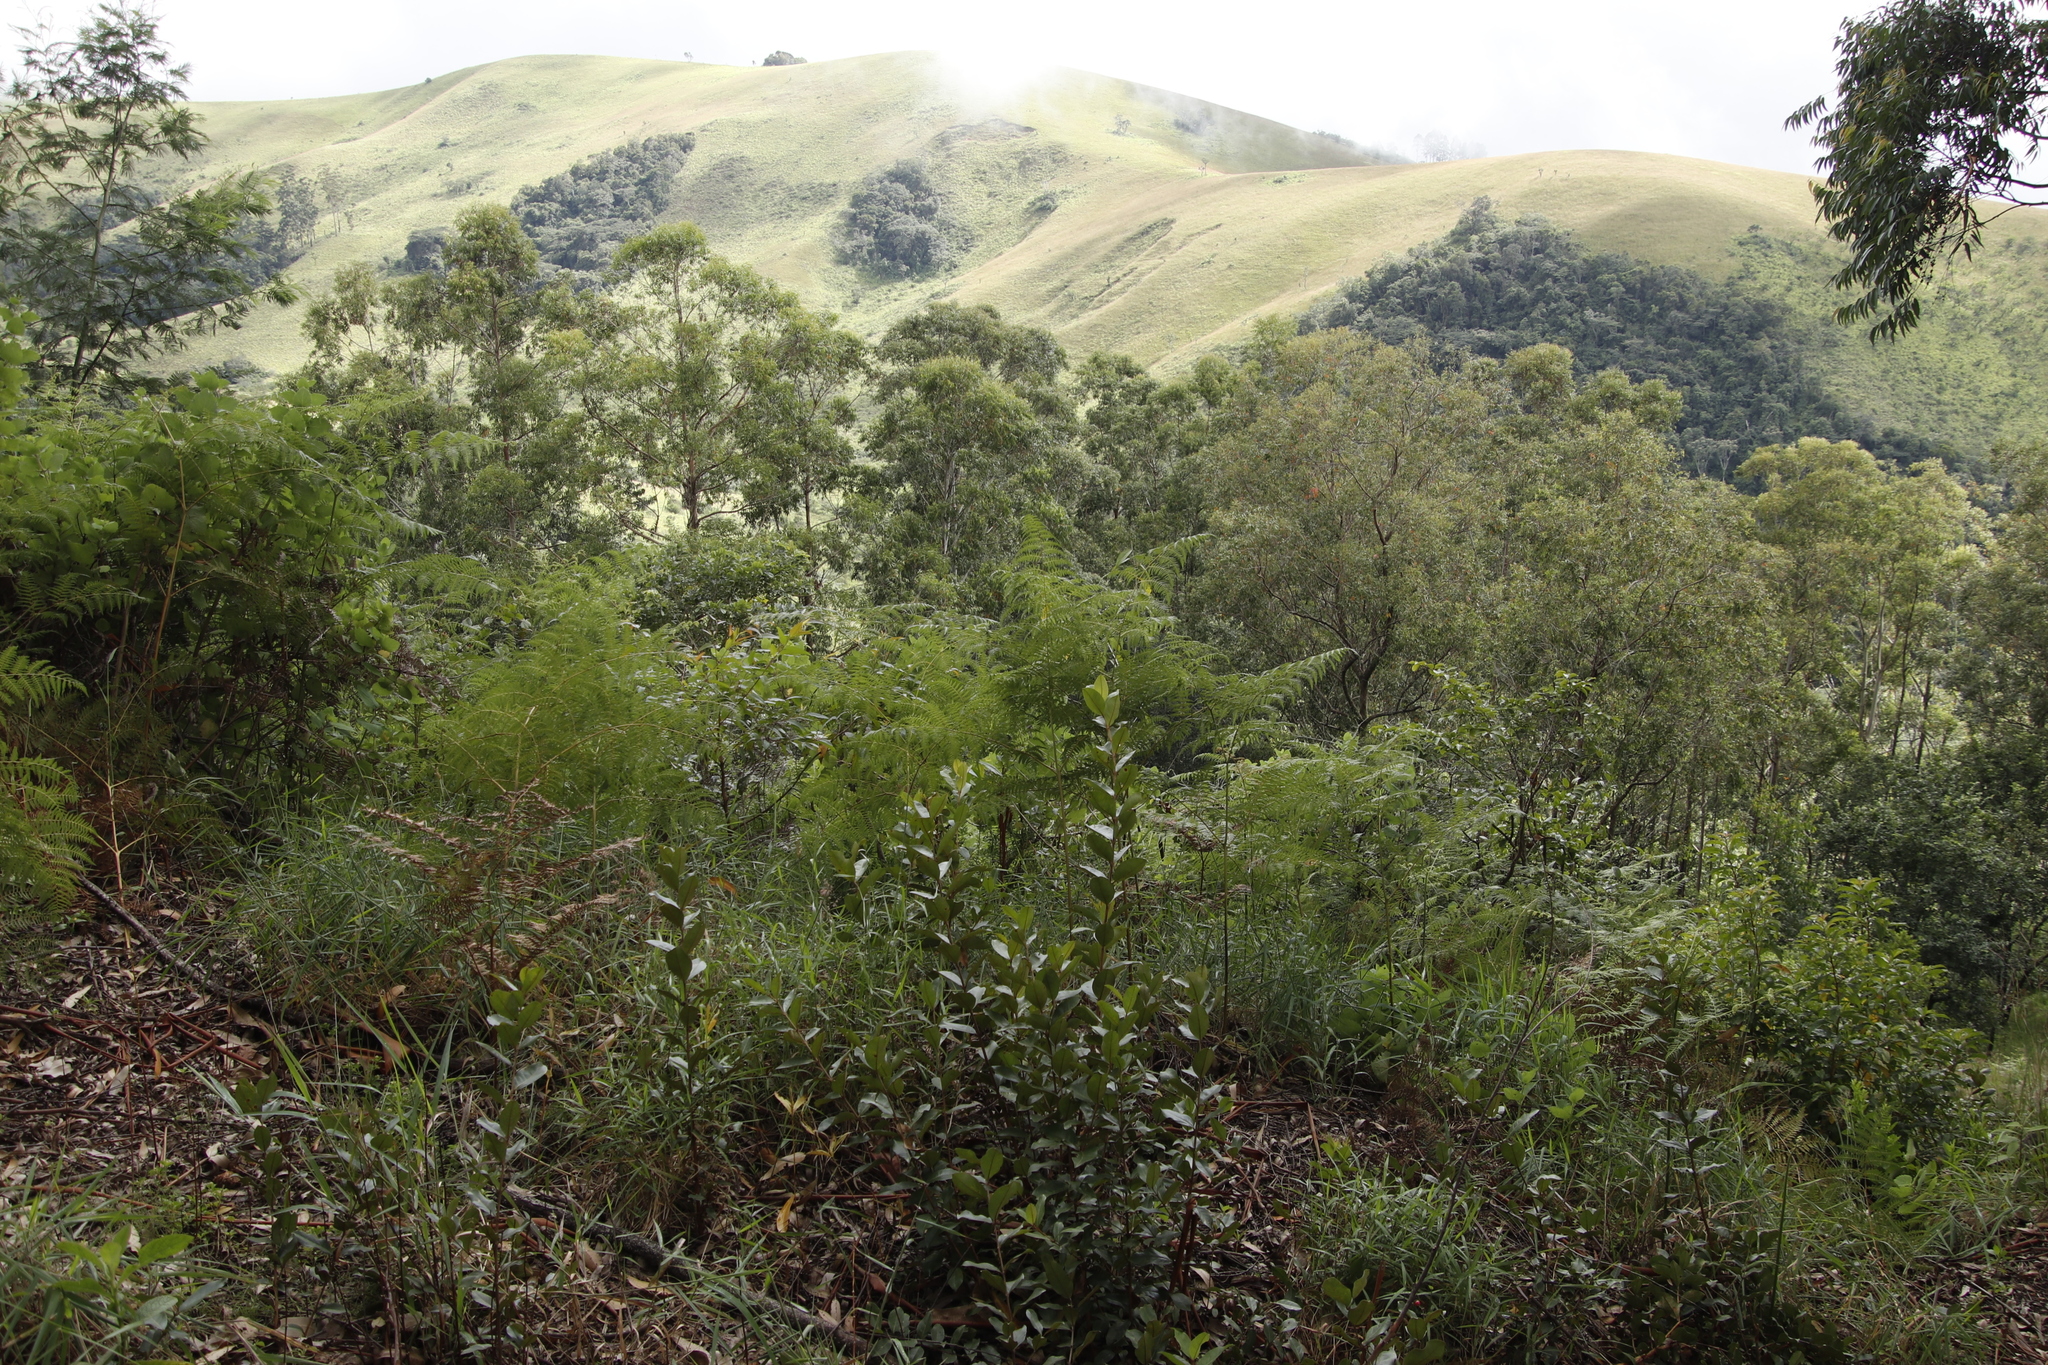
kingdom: Plantae
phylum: Tracheophyta
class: Polypodiopsida
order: Polypodiales
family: Dennstaedtiaceae
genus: Pteridium
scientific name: Pteridium aquilinum
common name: Bracken
